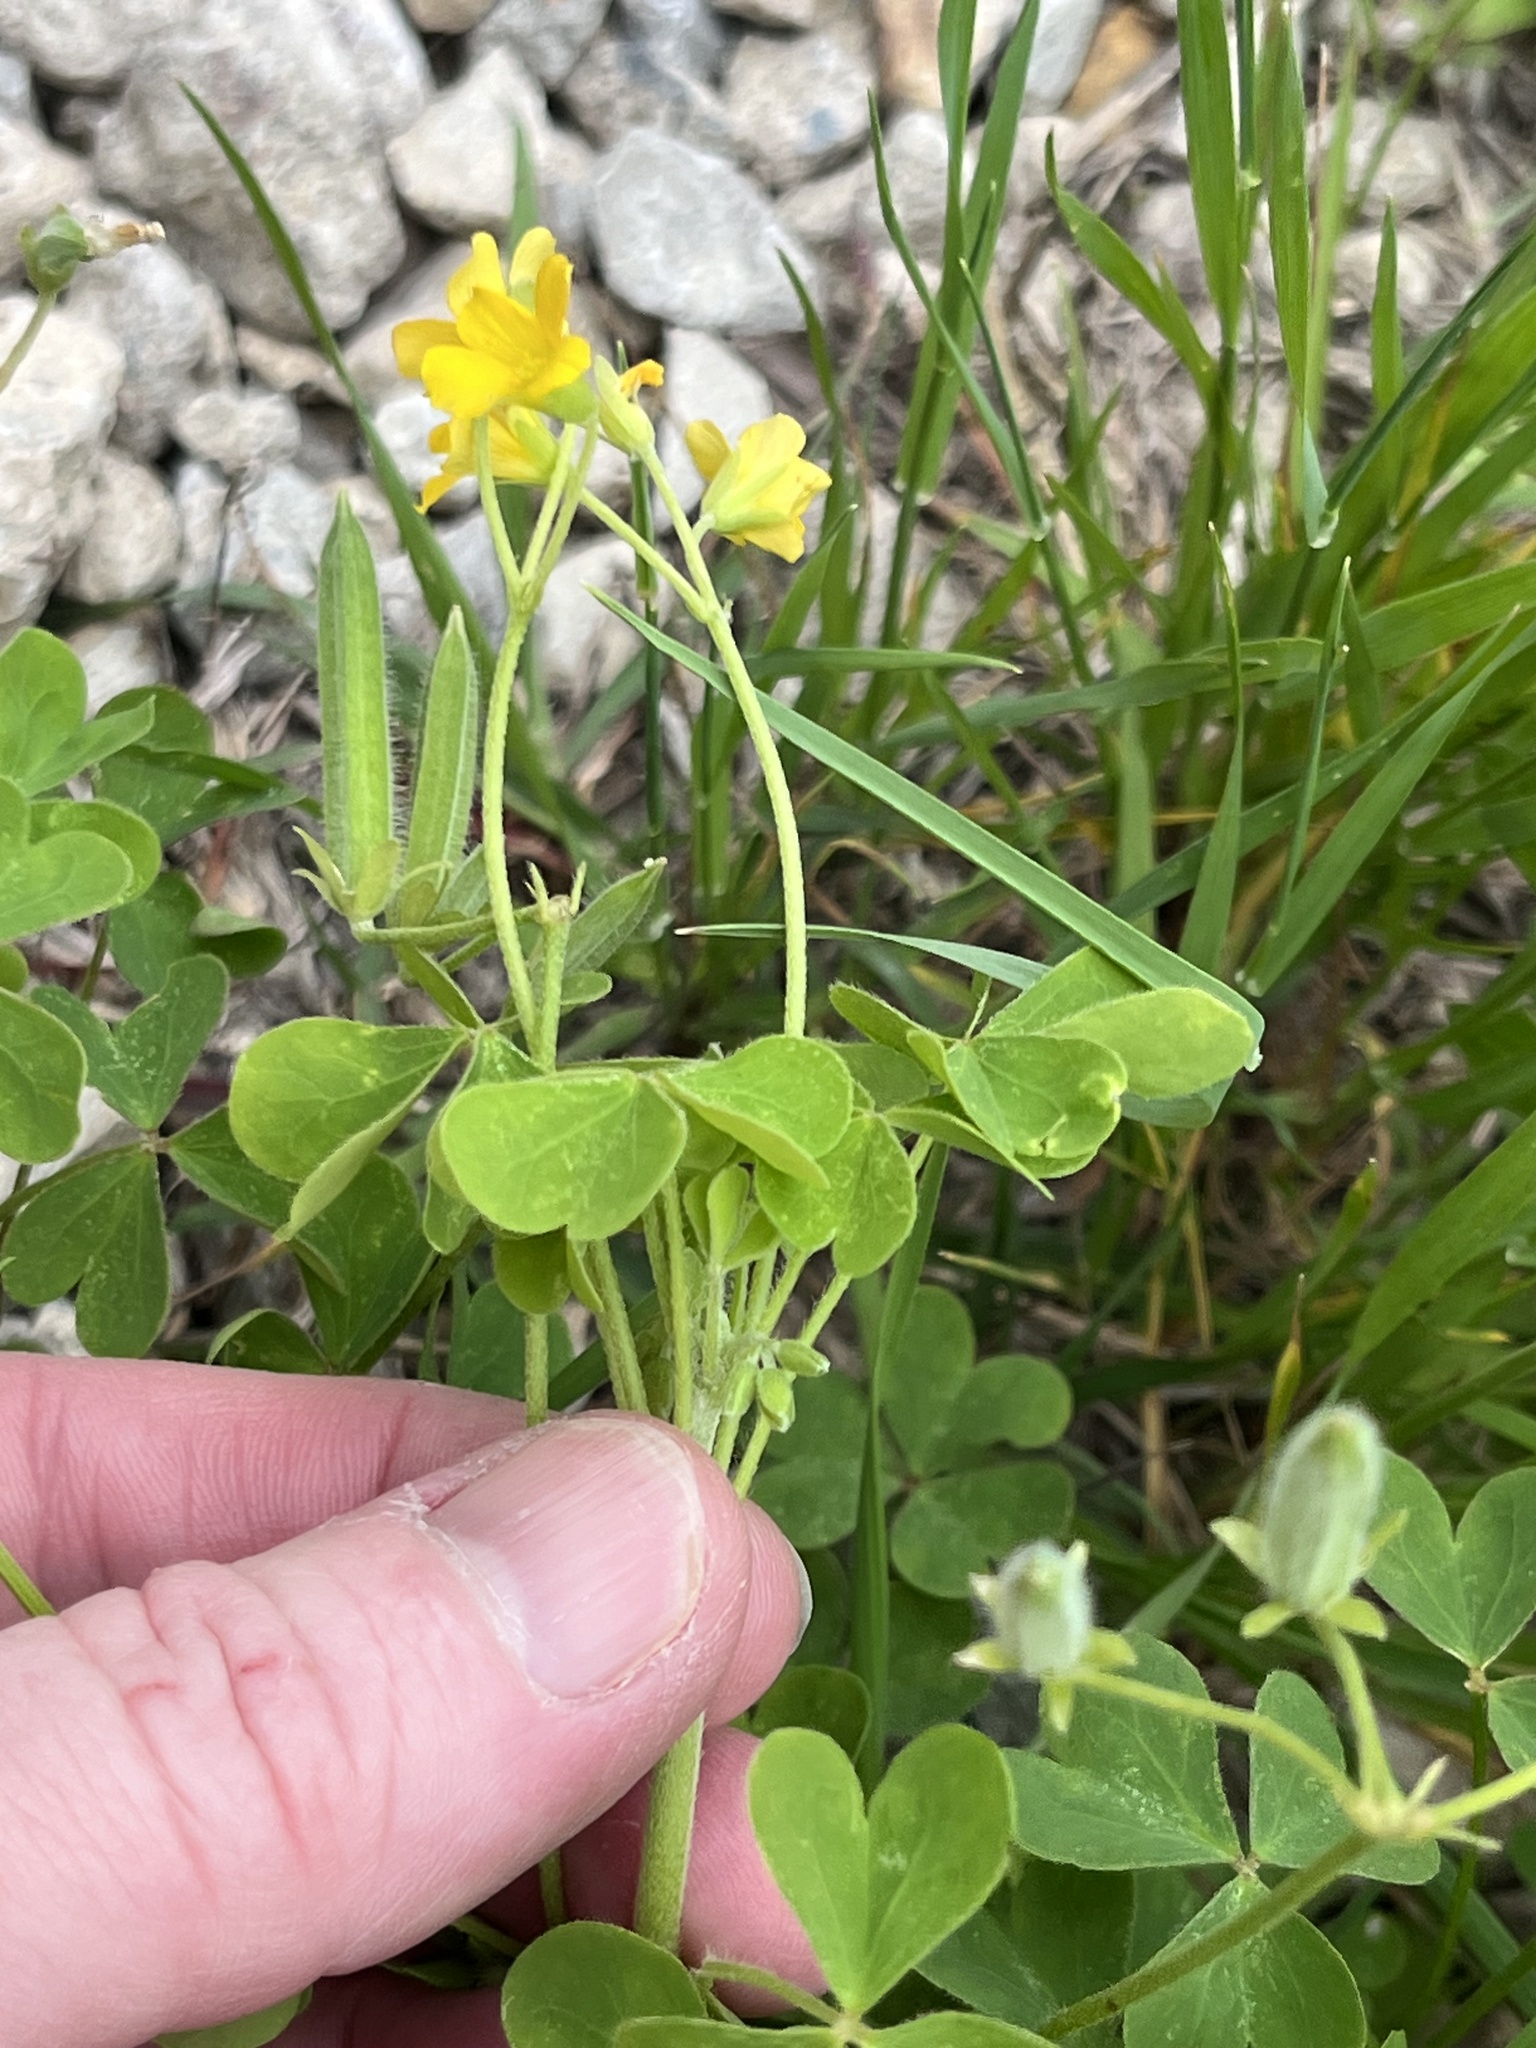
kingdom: Plantae
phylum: Tracheophyta
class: Magnoliopsida
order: Oxalidales
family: Oxalidaceae
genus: Oxalis
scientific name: Oxalis dillenii
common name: Sussex yellow-sorrel
